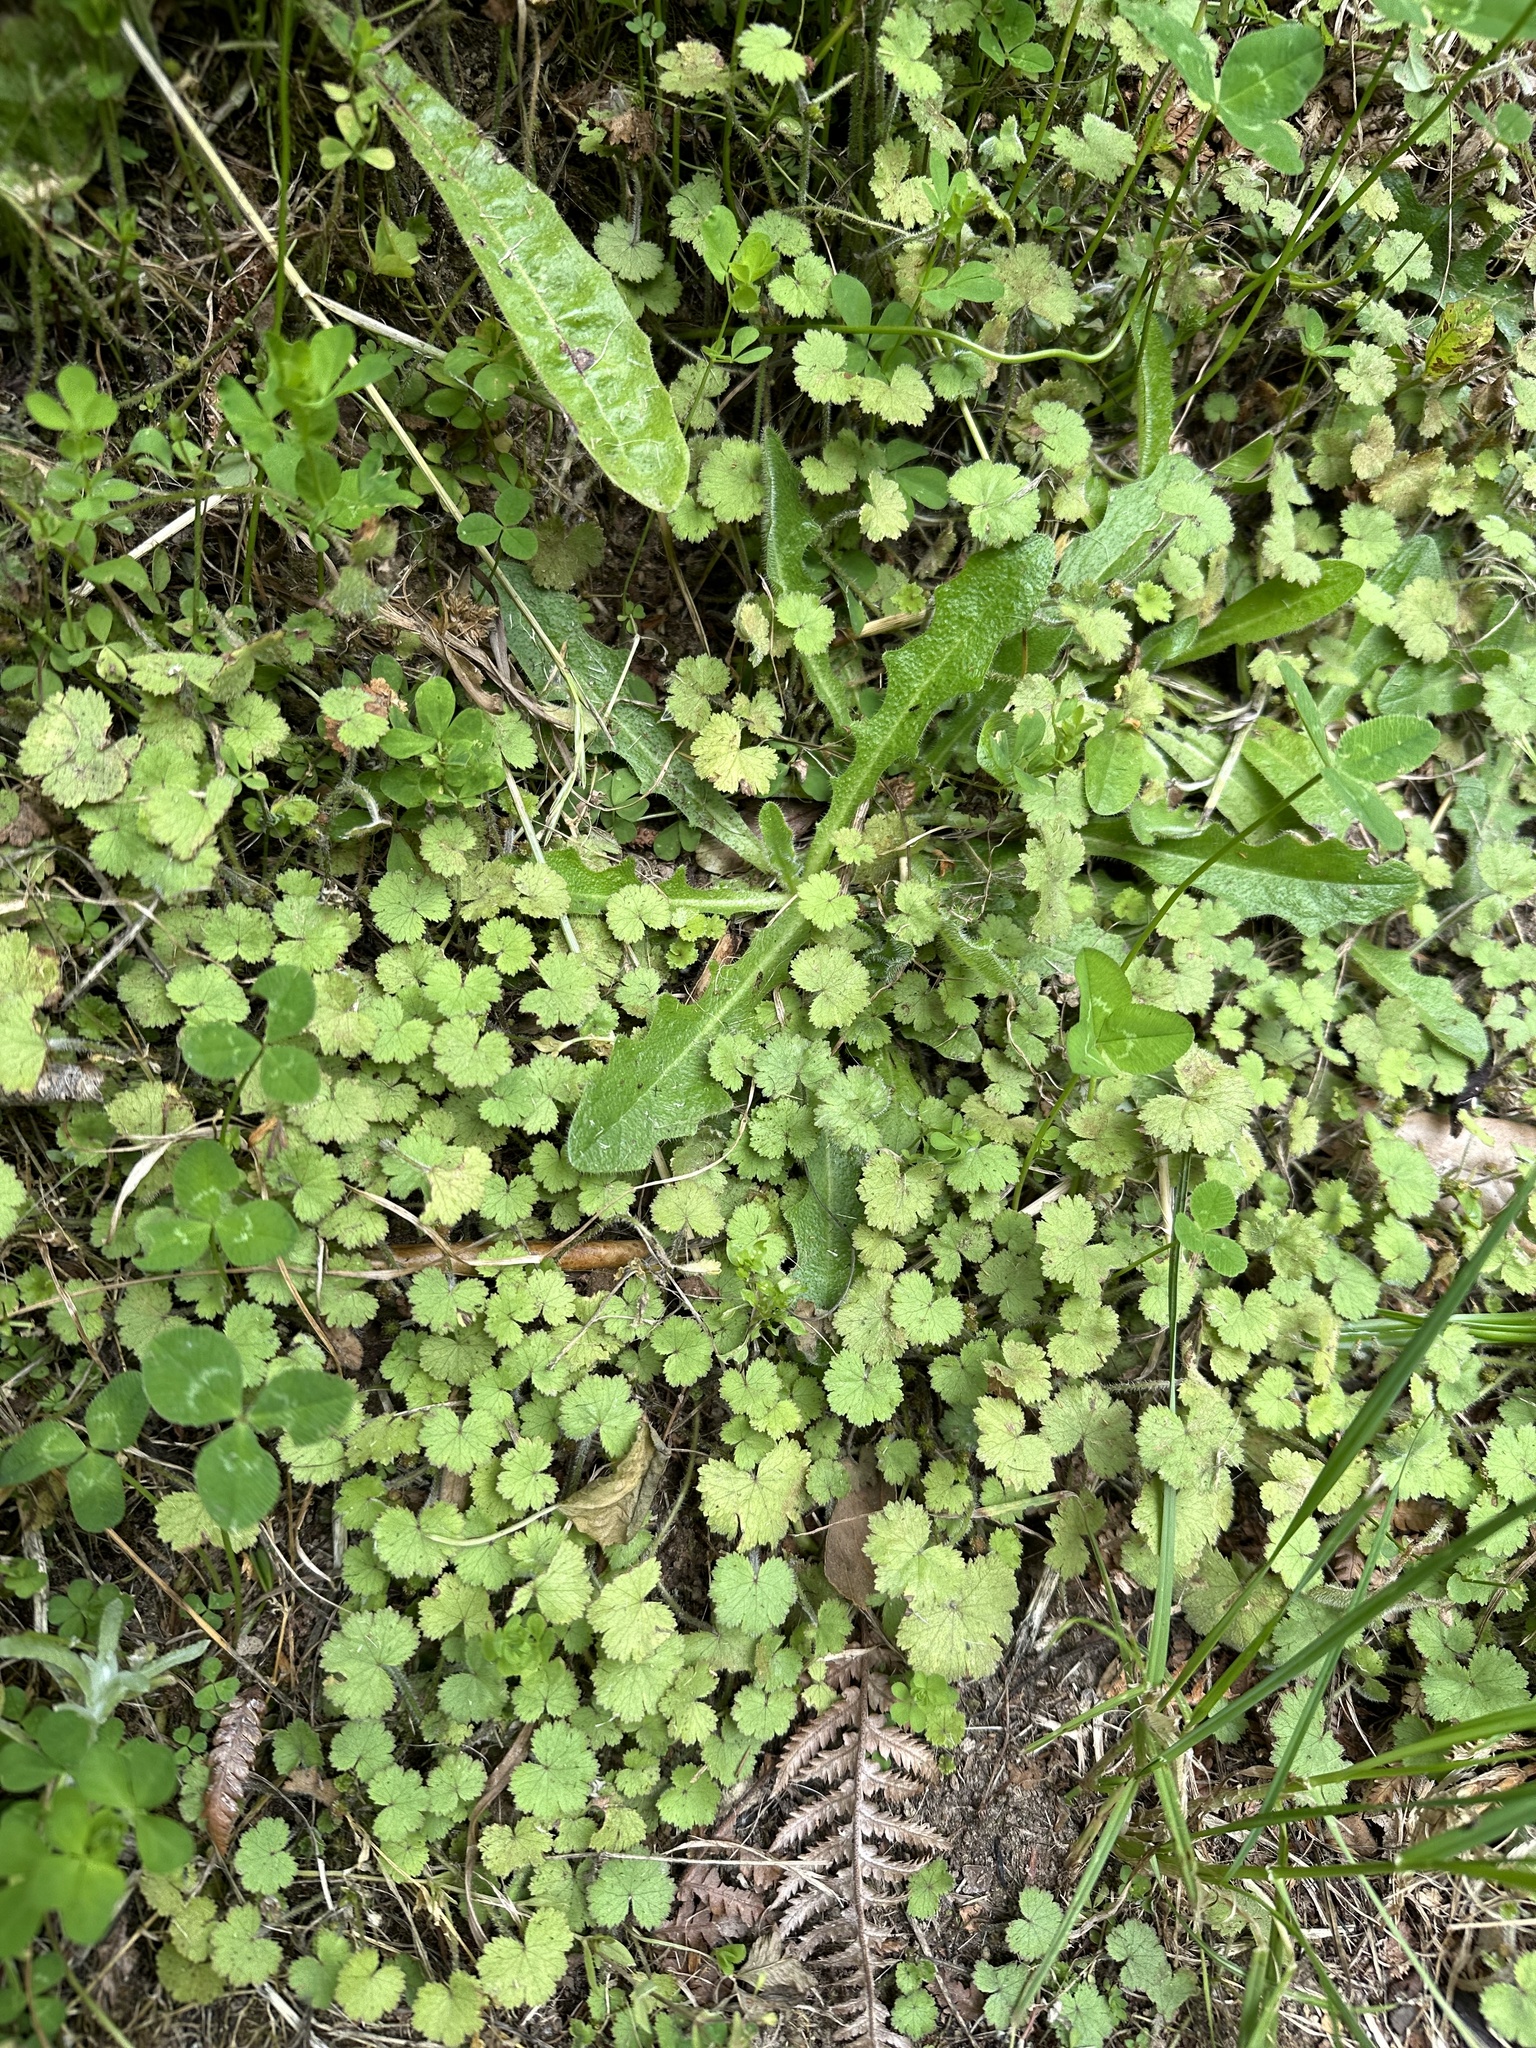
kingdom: Plantae
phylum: Tracheophyta
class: Magnoliopsida
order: Apiales
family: Araliaceae
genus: Hydrocotyle
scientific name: Hydrocotyle moschata
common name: Hairy pennywort
